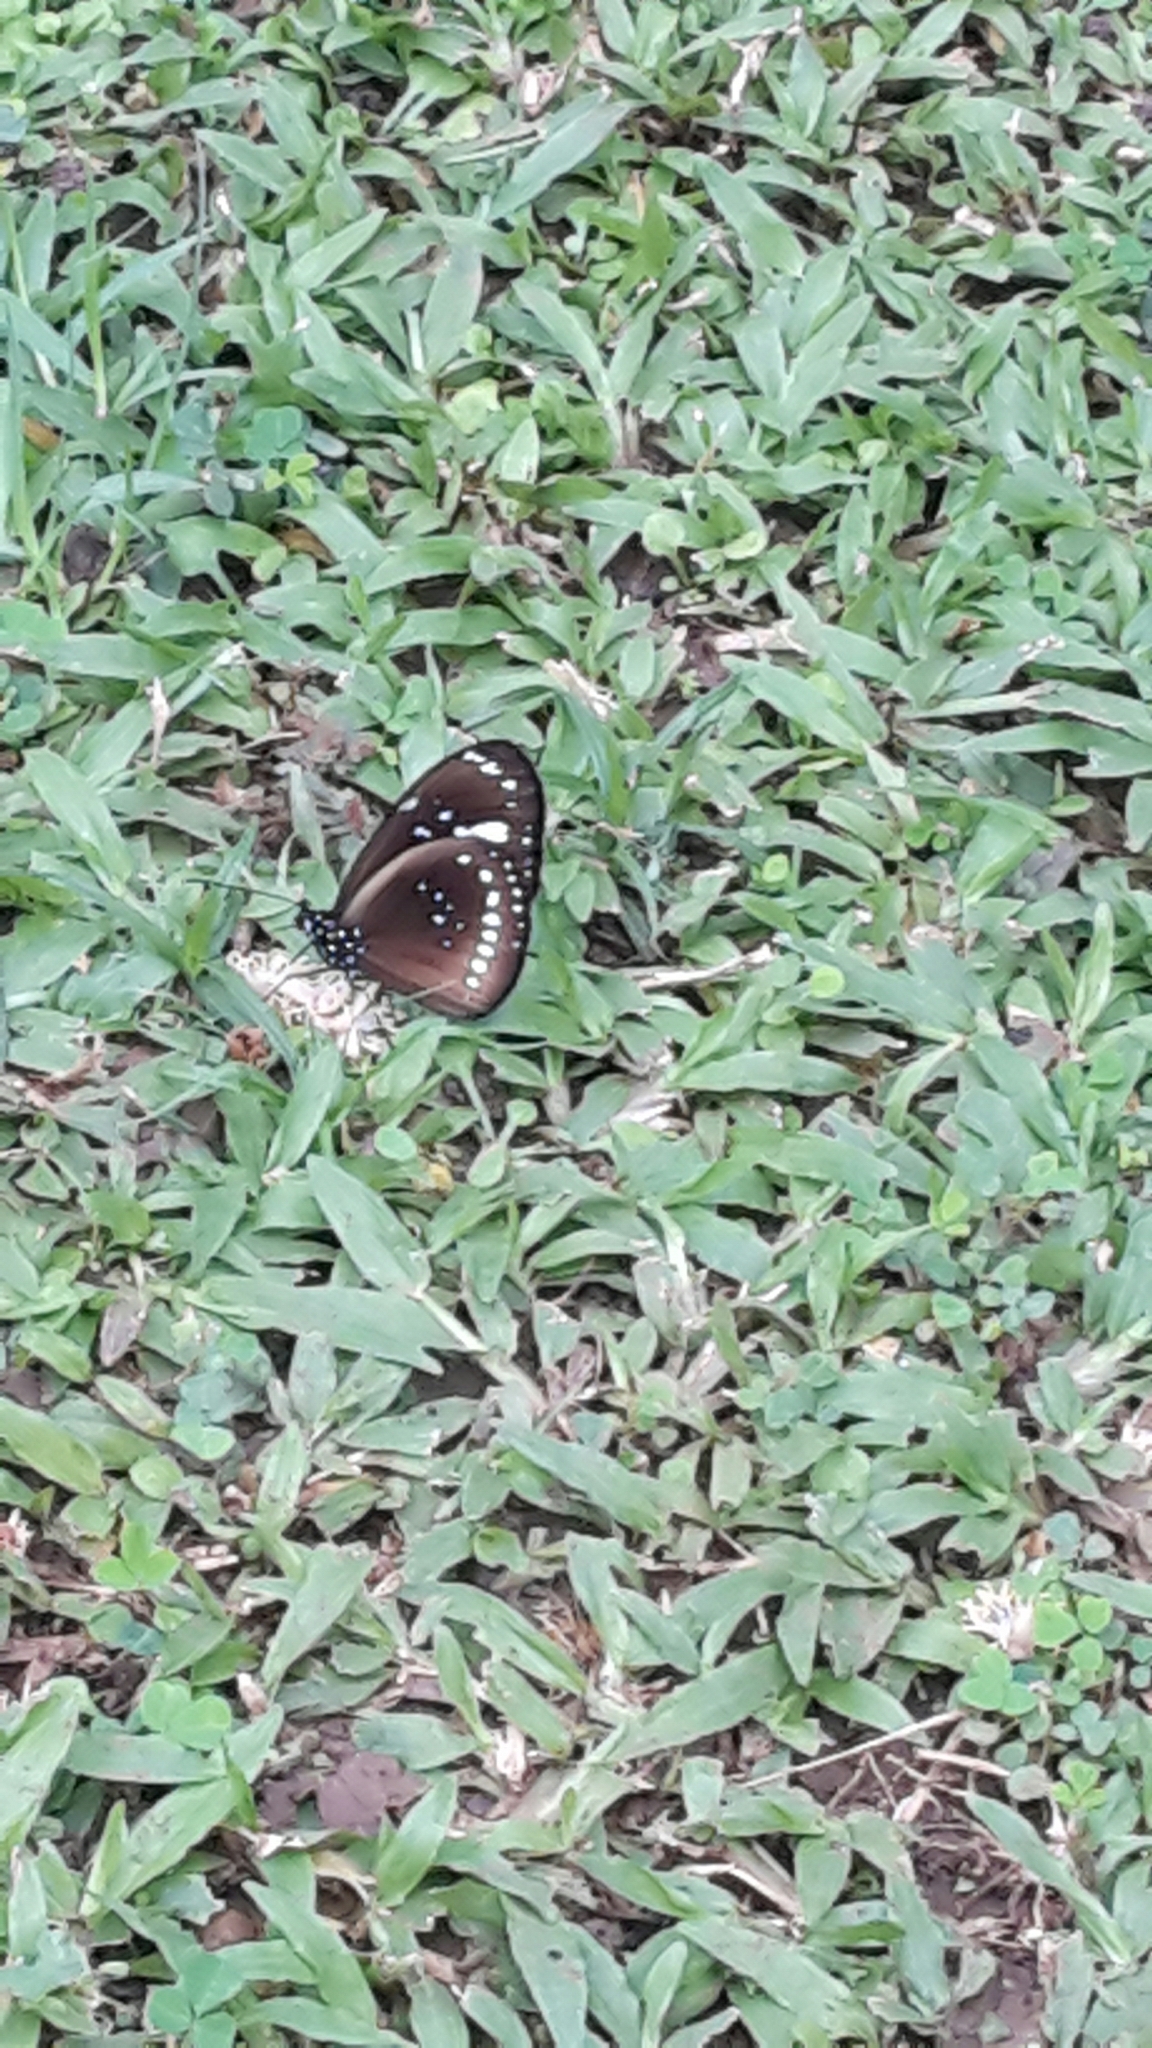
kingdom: Animalia
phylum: Arthropoda
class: Insecta
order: Lepidoptera
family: Nymphalidae
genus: Euploea
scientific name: Euploea lewinii
